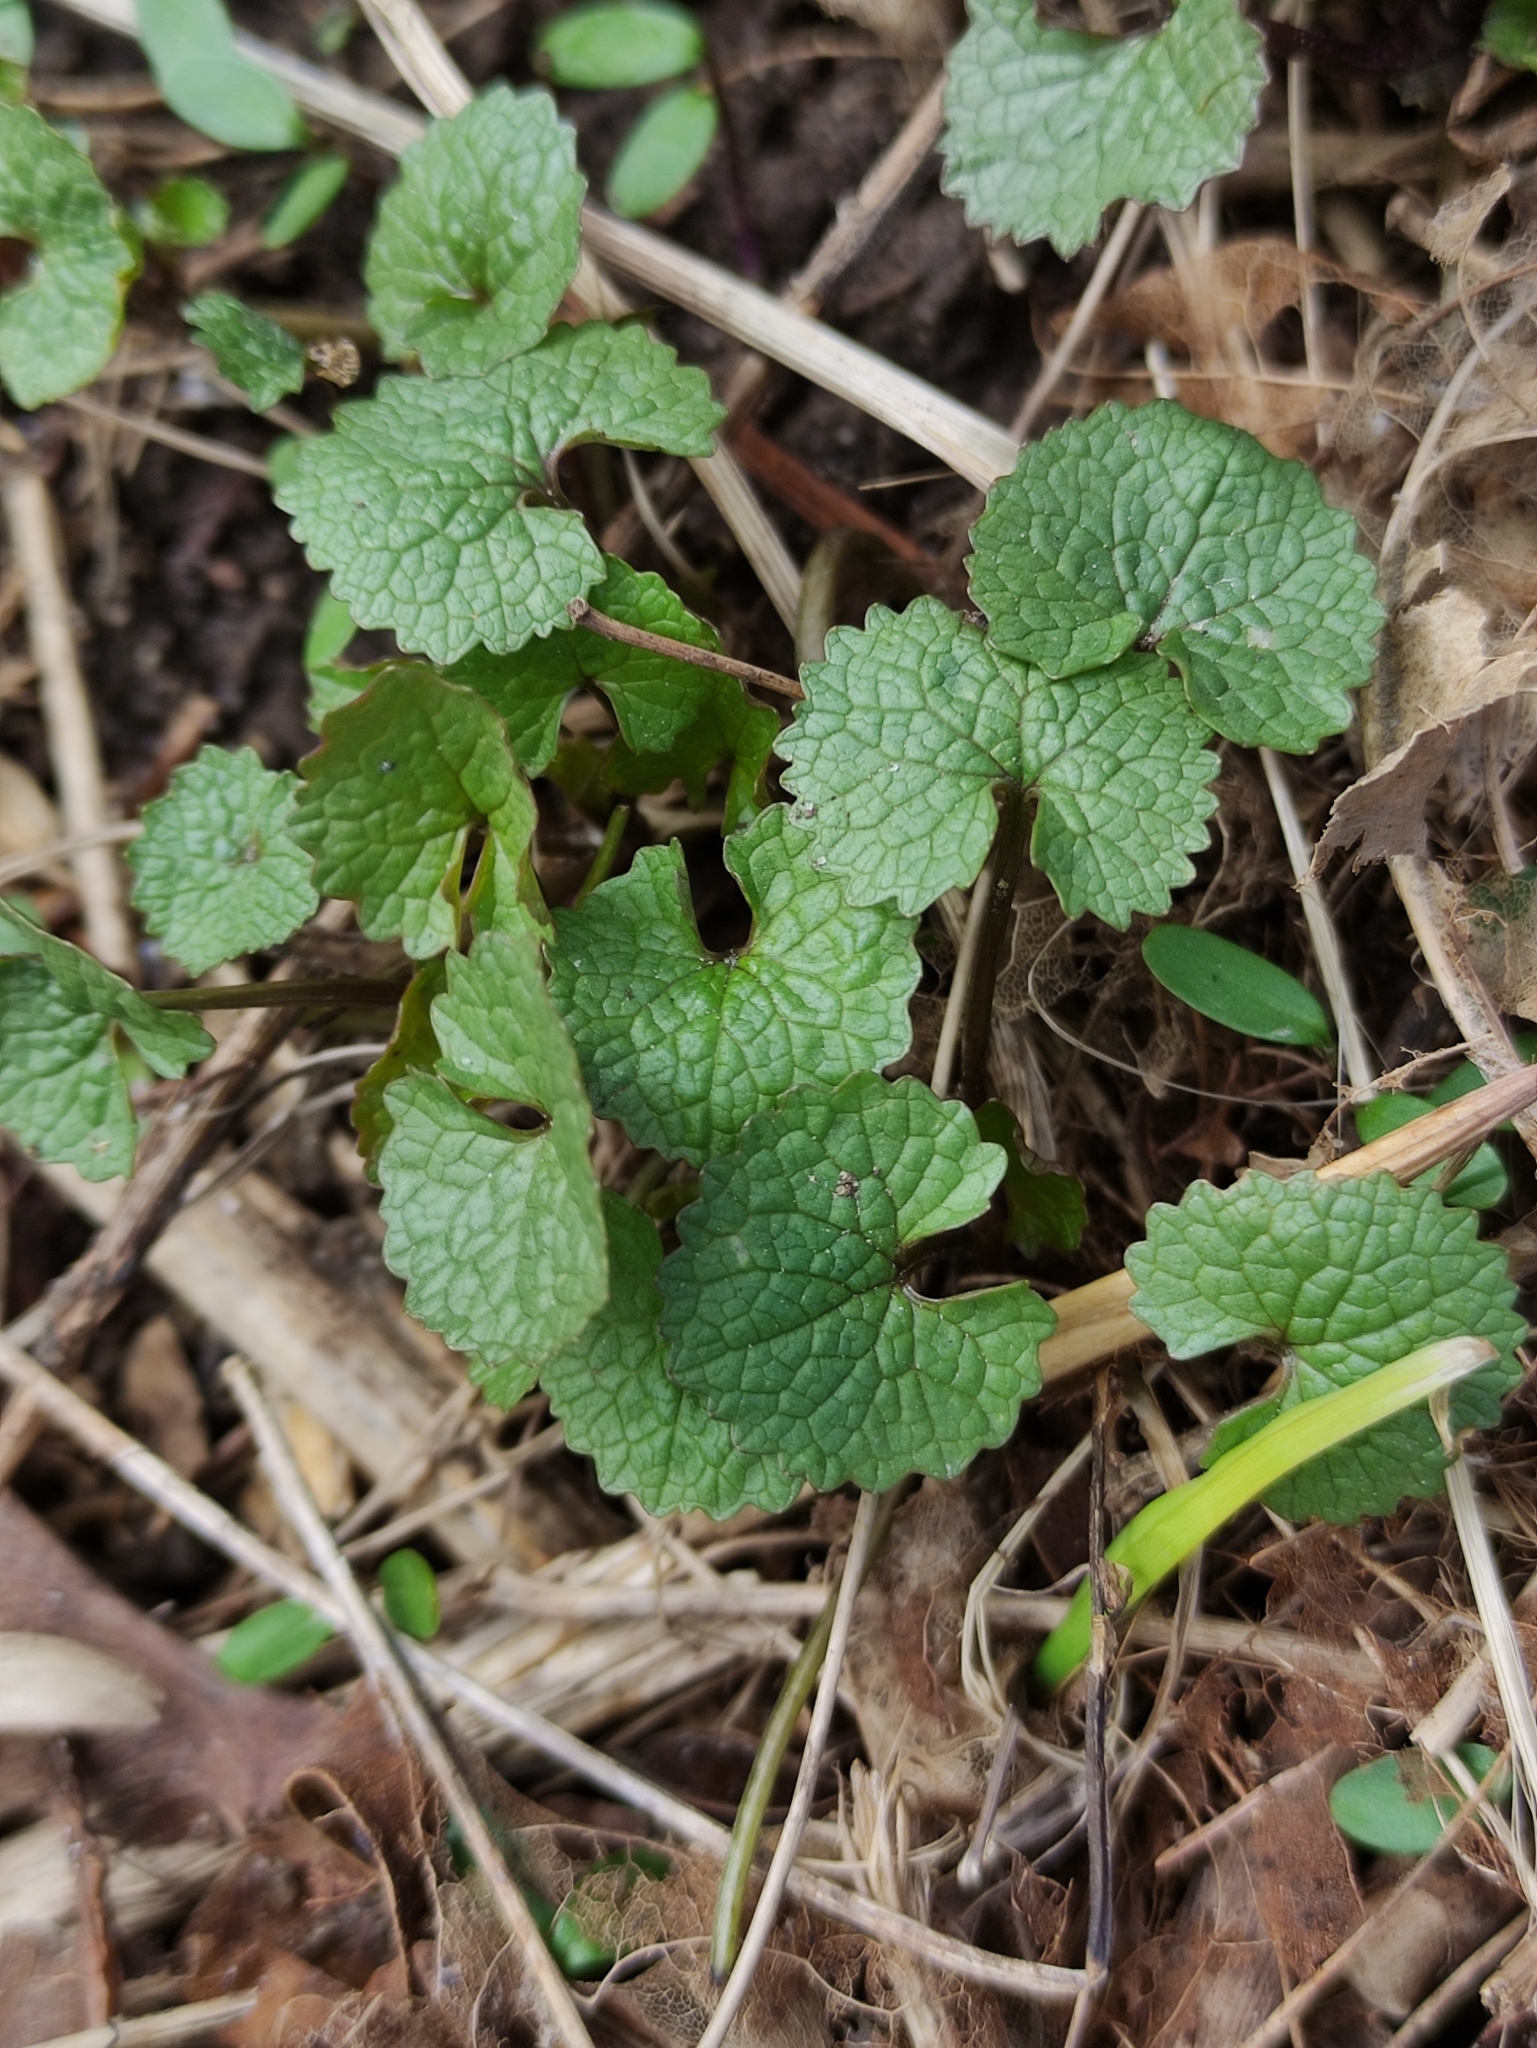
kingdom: Plantae
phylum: Tracheophyta
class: Magnoliopsida
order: Brassicales
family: Brassicaceae
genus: Alliaria
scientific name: Alliaria petiolata
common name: Garlic mustard
